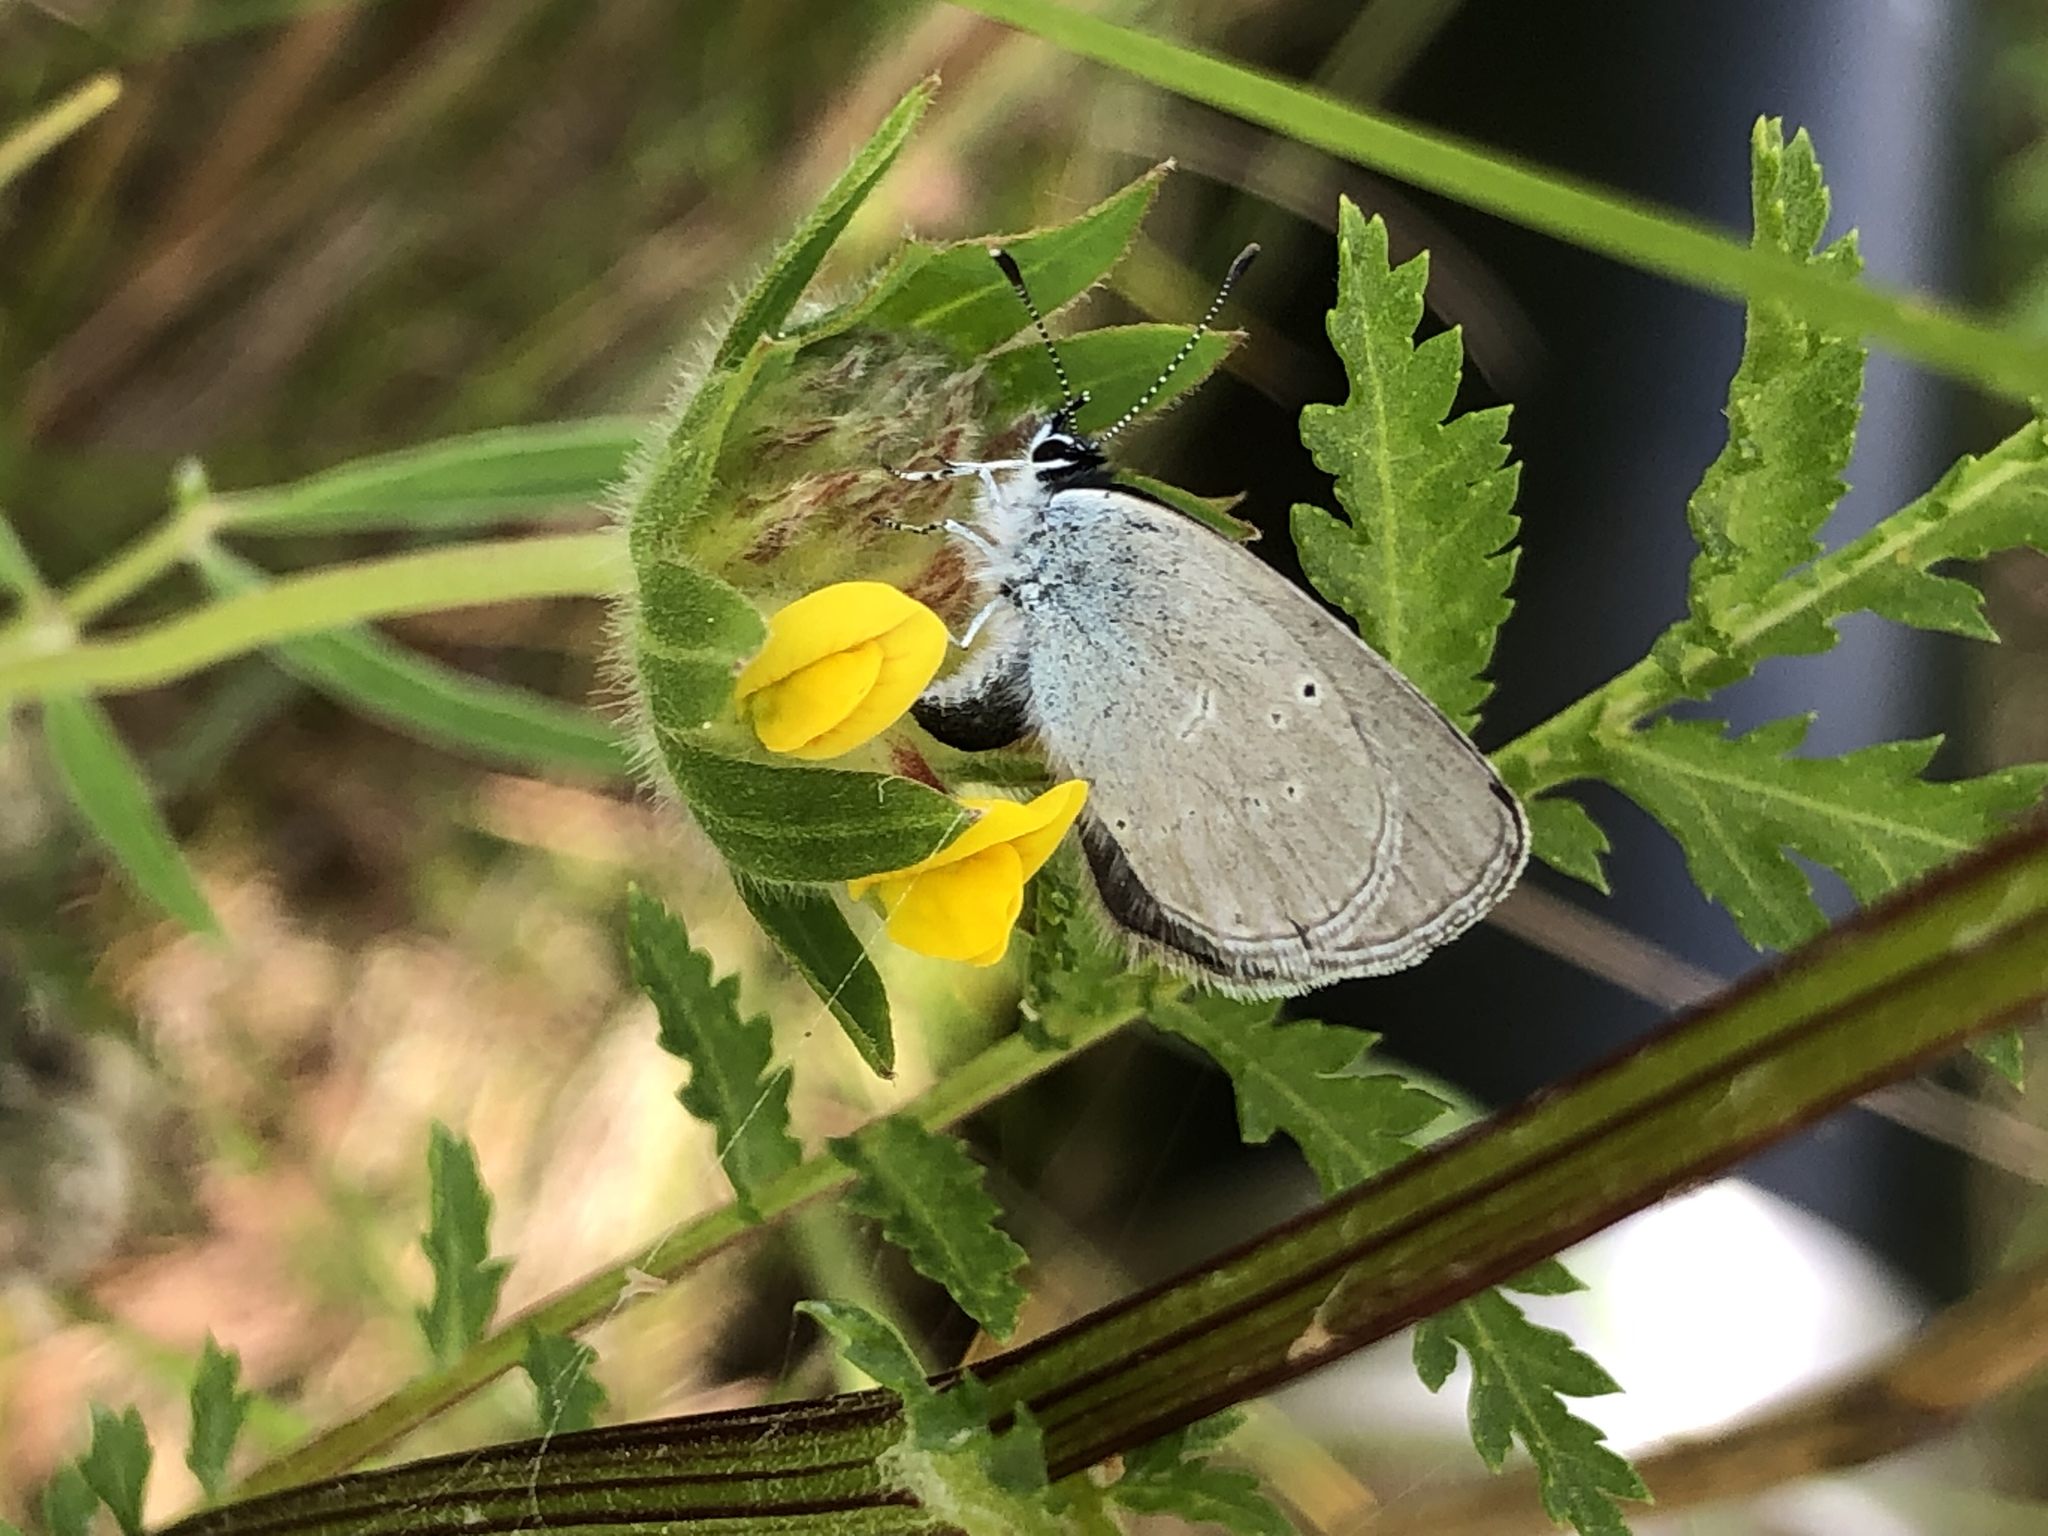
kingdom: Animalia
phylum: Arthropoda
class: Insecta
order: Lepidoptera
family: Lycaenidae
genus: Cupido
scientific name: Cupido minimus
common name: Small blue
